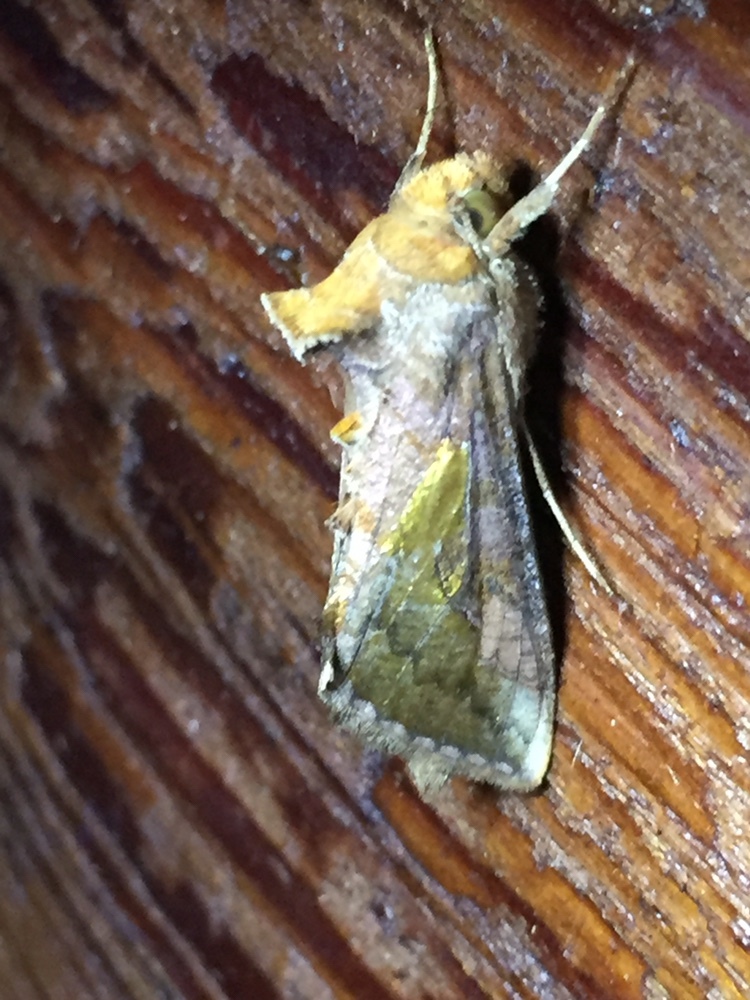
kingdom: Animalia
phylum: Arthropoda
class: Insecta
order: Lepidoptera
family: Noctuidae
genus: Thysanoplusia
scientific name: Thysanoplusia orichalcea
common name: Slender burnished brass, golden plusia
